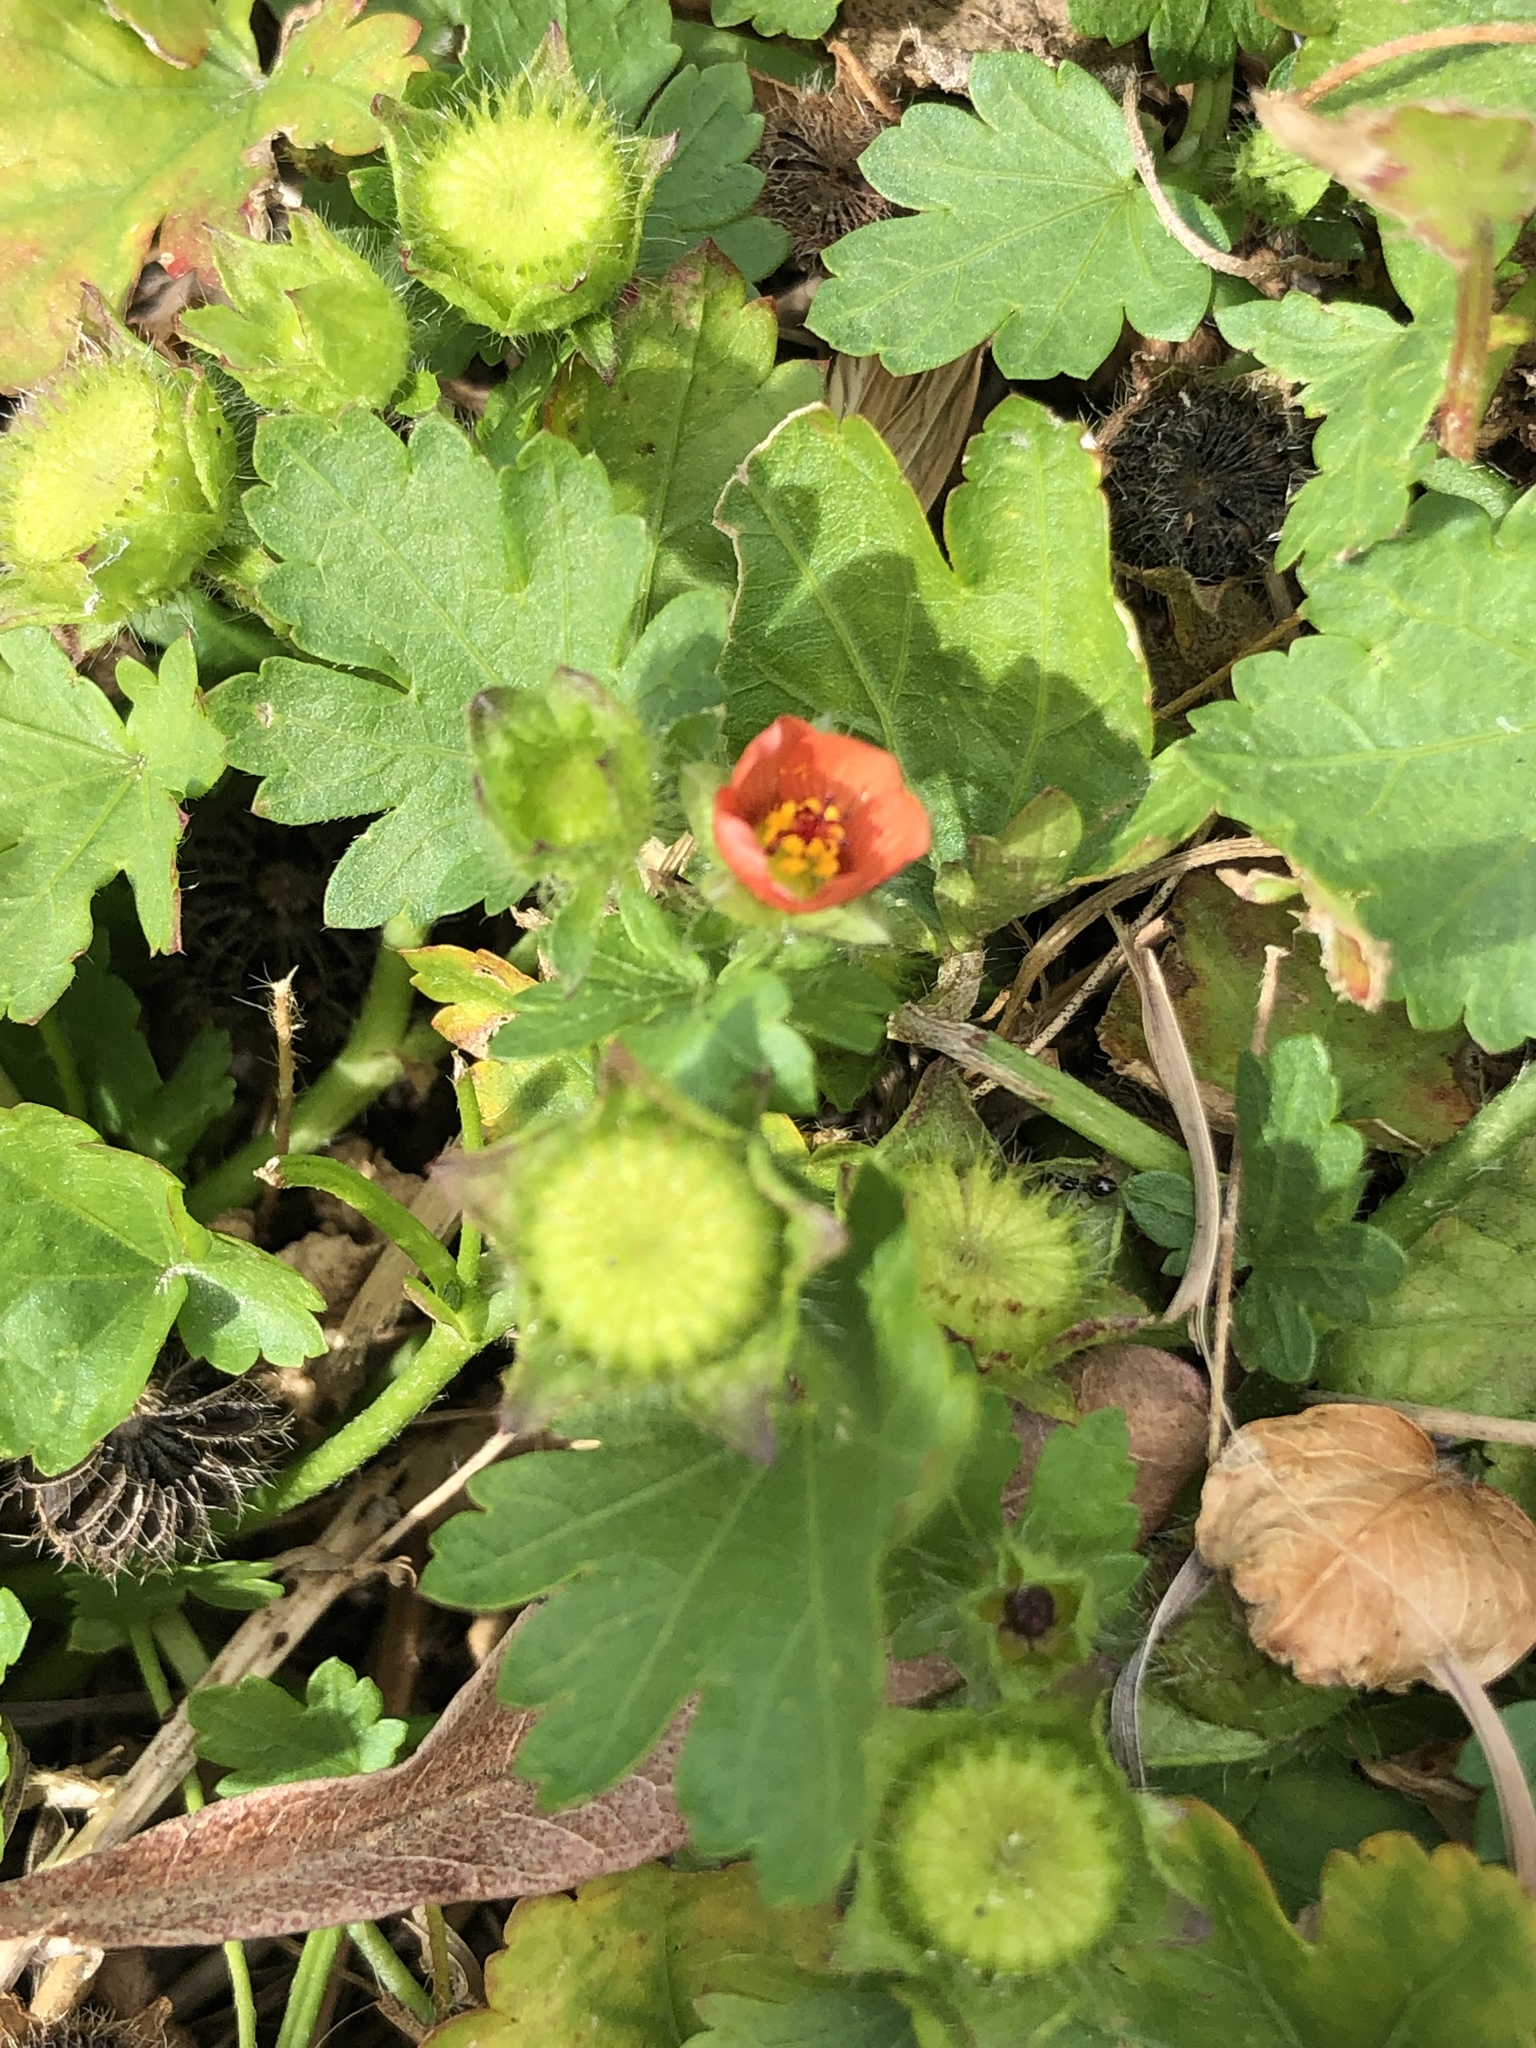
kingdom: Plantae
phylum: Tracheophyta
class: Magnoliopsida
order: Malvales
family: Malvaceae
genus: Modiola
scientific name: Modiola caroliniana
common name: Carolina bristlemallow
